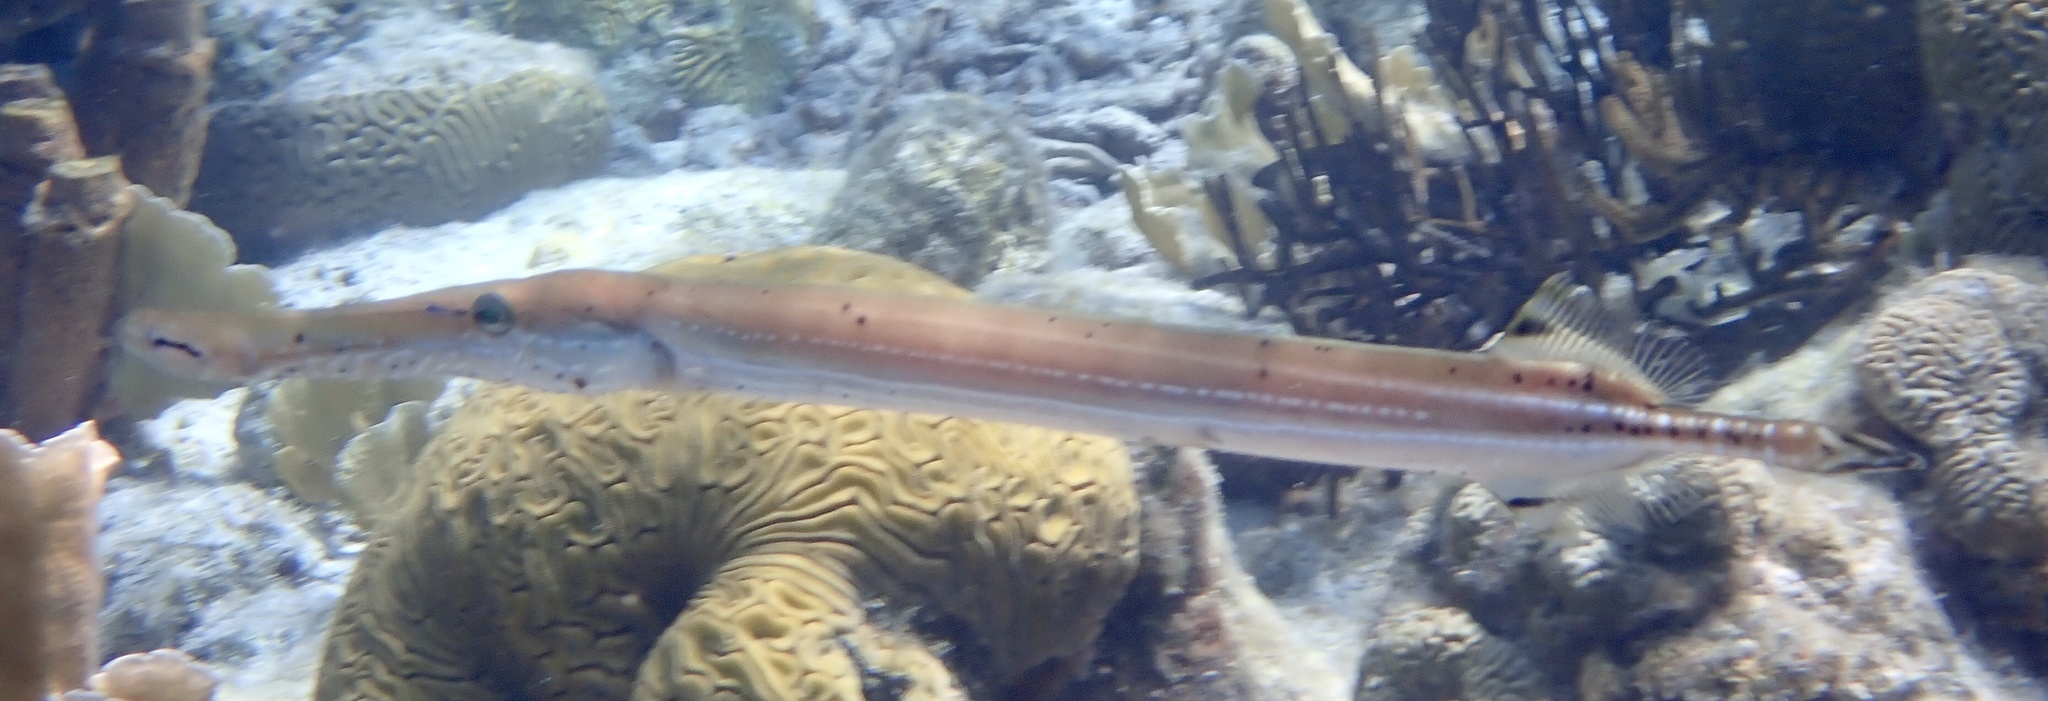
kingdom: Animalia
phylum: Chordata
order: Syngnathiformes
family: Aulostomidae
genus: Aulostomus
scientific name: Aulostomus maculatus
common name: West atlantic trumpetfish
